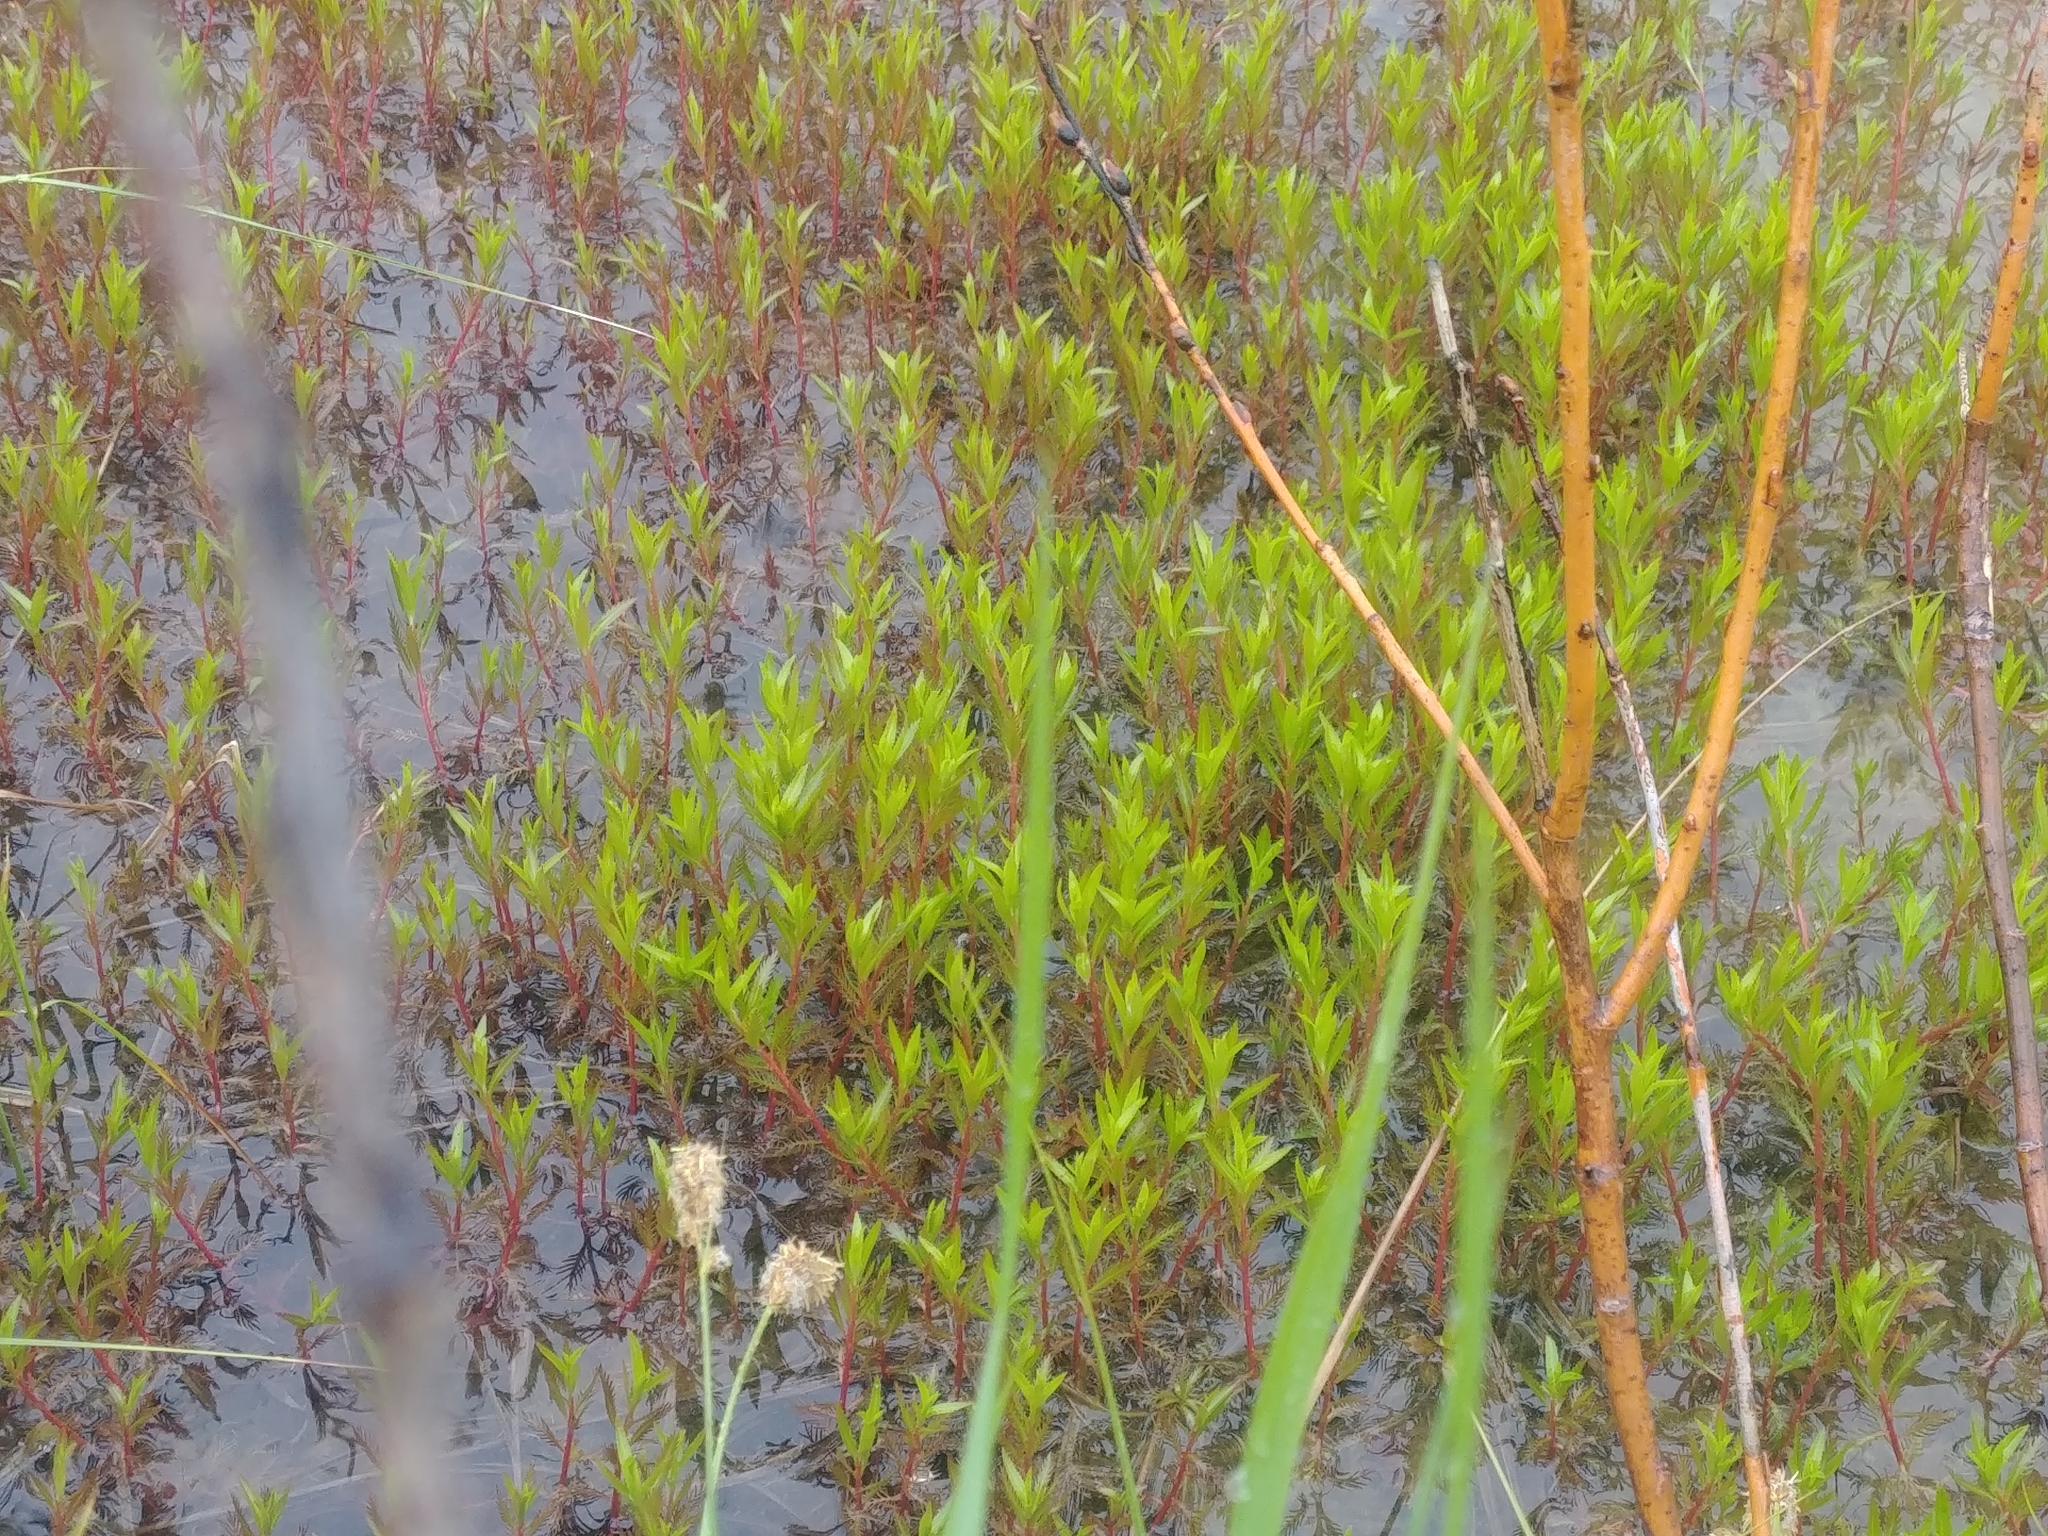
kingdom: Plantae
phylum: Tracheophyta
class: Magnoliopsida
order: Saxifragales
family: Haloragaceae
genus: Proserpinaca
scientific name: Proserpinaca palustris
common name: Marsh mermaidweed
